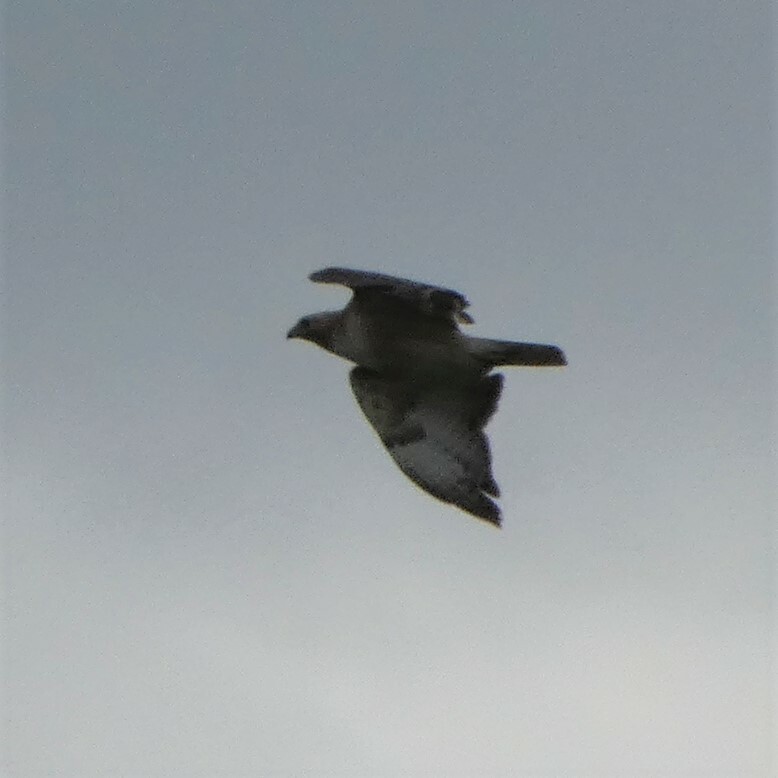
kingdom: Animalia
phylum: Chordata
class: Aves
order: Accipitriformes
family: Accipitridae
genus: Buteo
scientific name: Buteo jamaicensis
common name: Red-tailed hawk
